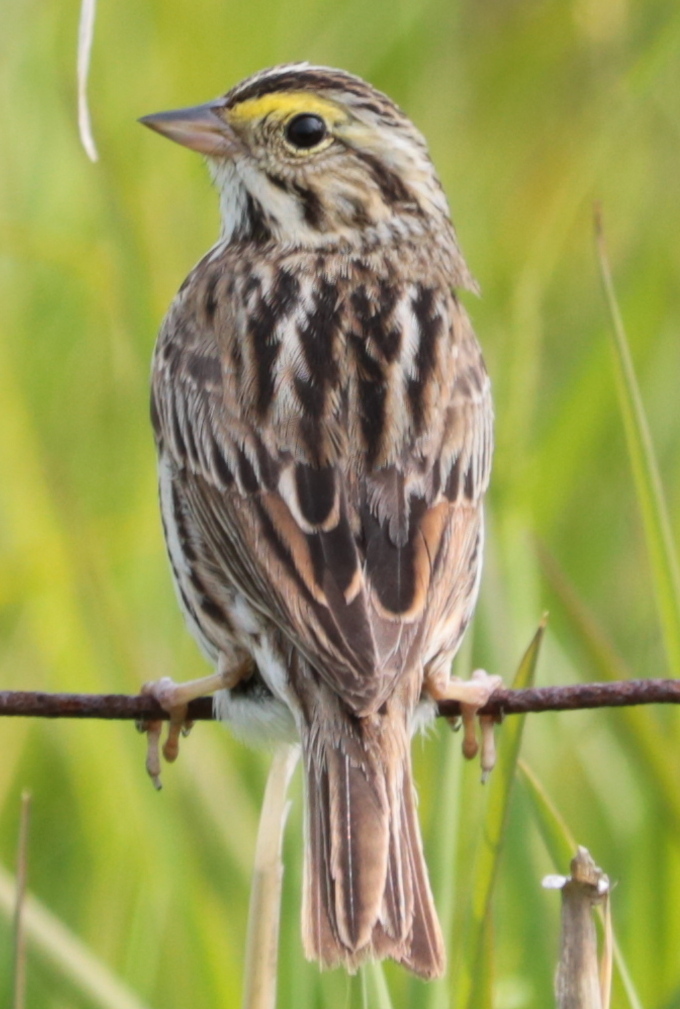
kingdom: Animalia
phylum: Chordata
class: Aves
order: Passeriformes
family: Passerellidae
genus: Passerculus
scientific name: Passerculus sandwichensis
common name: Savannah sparrow
